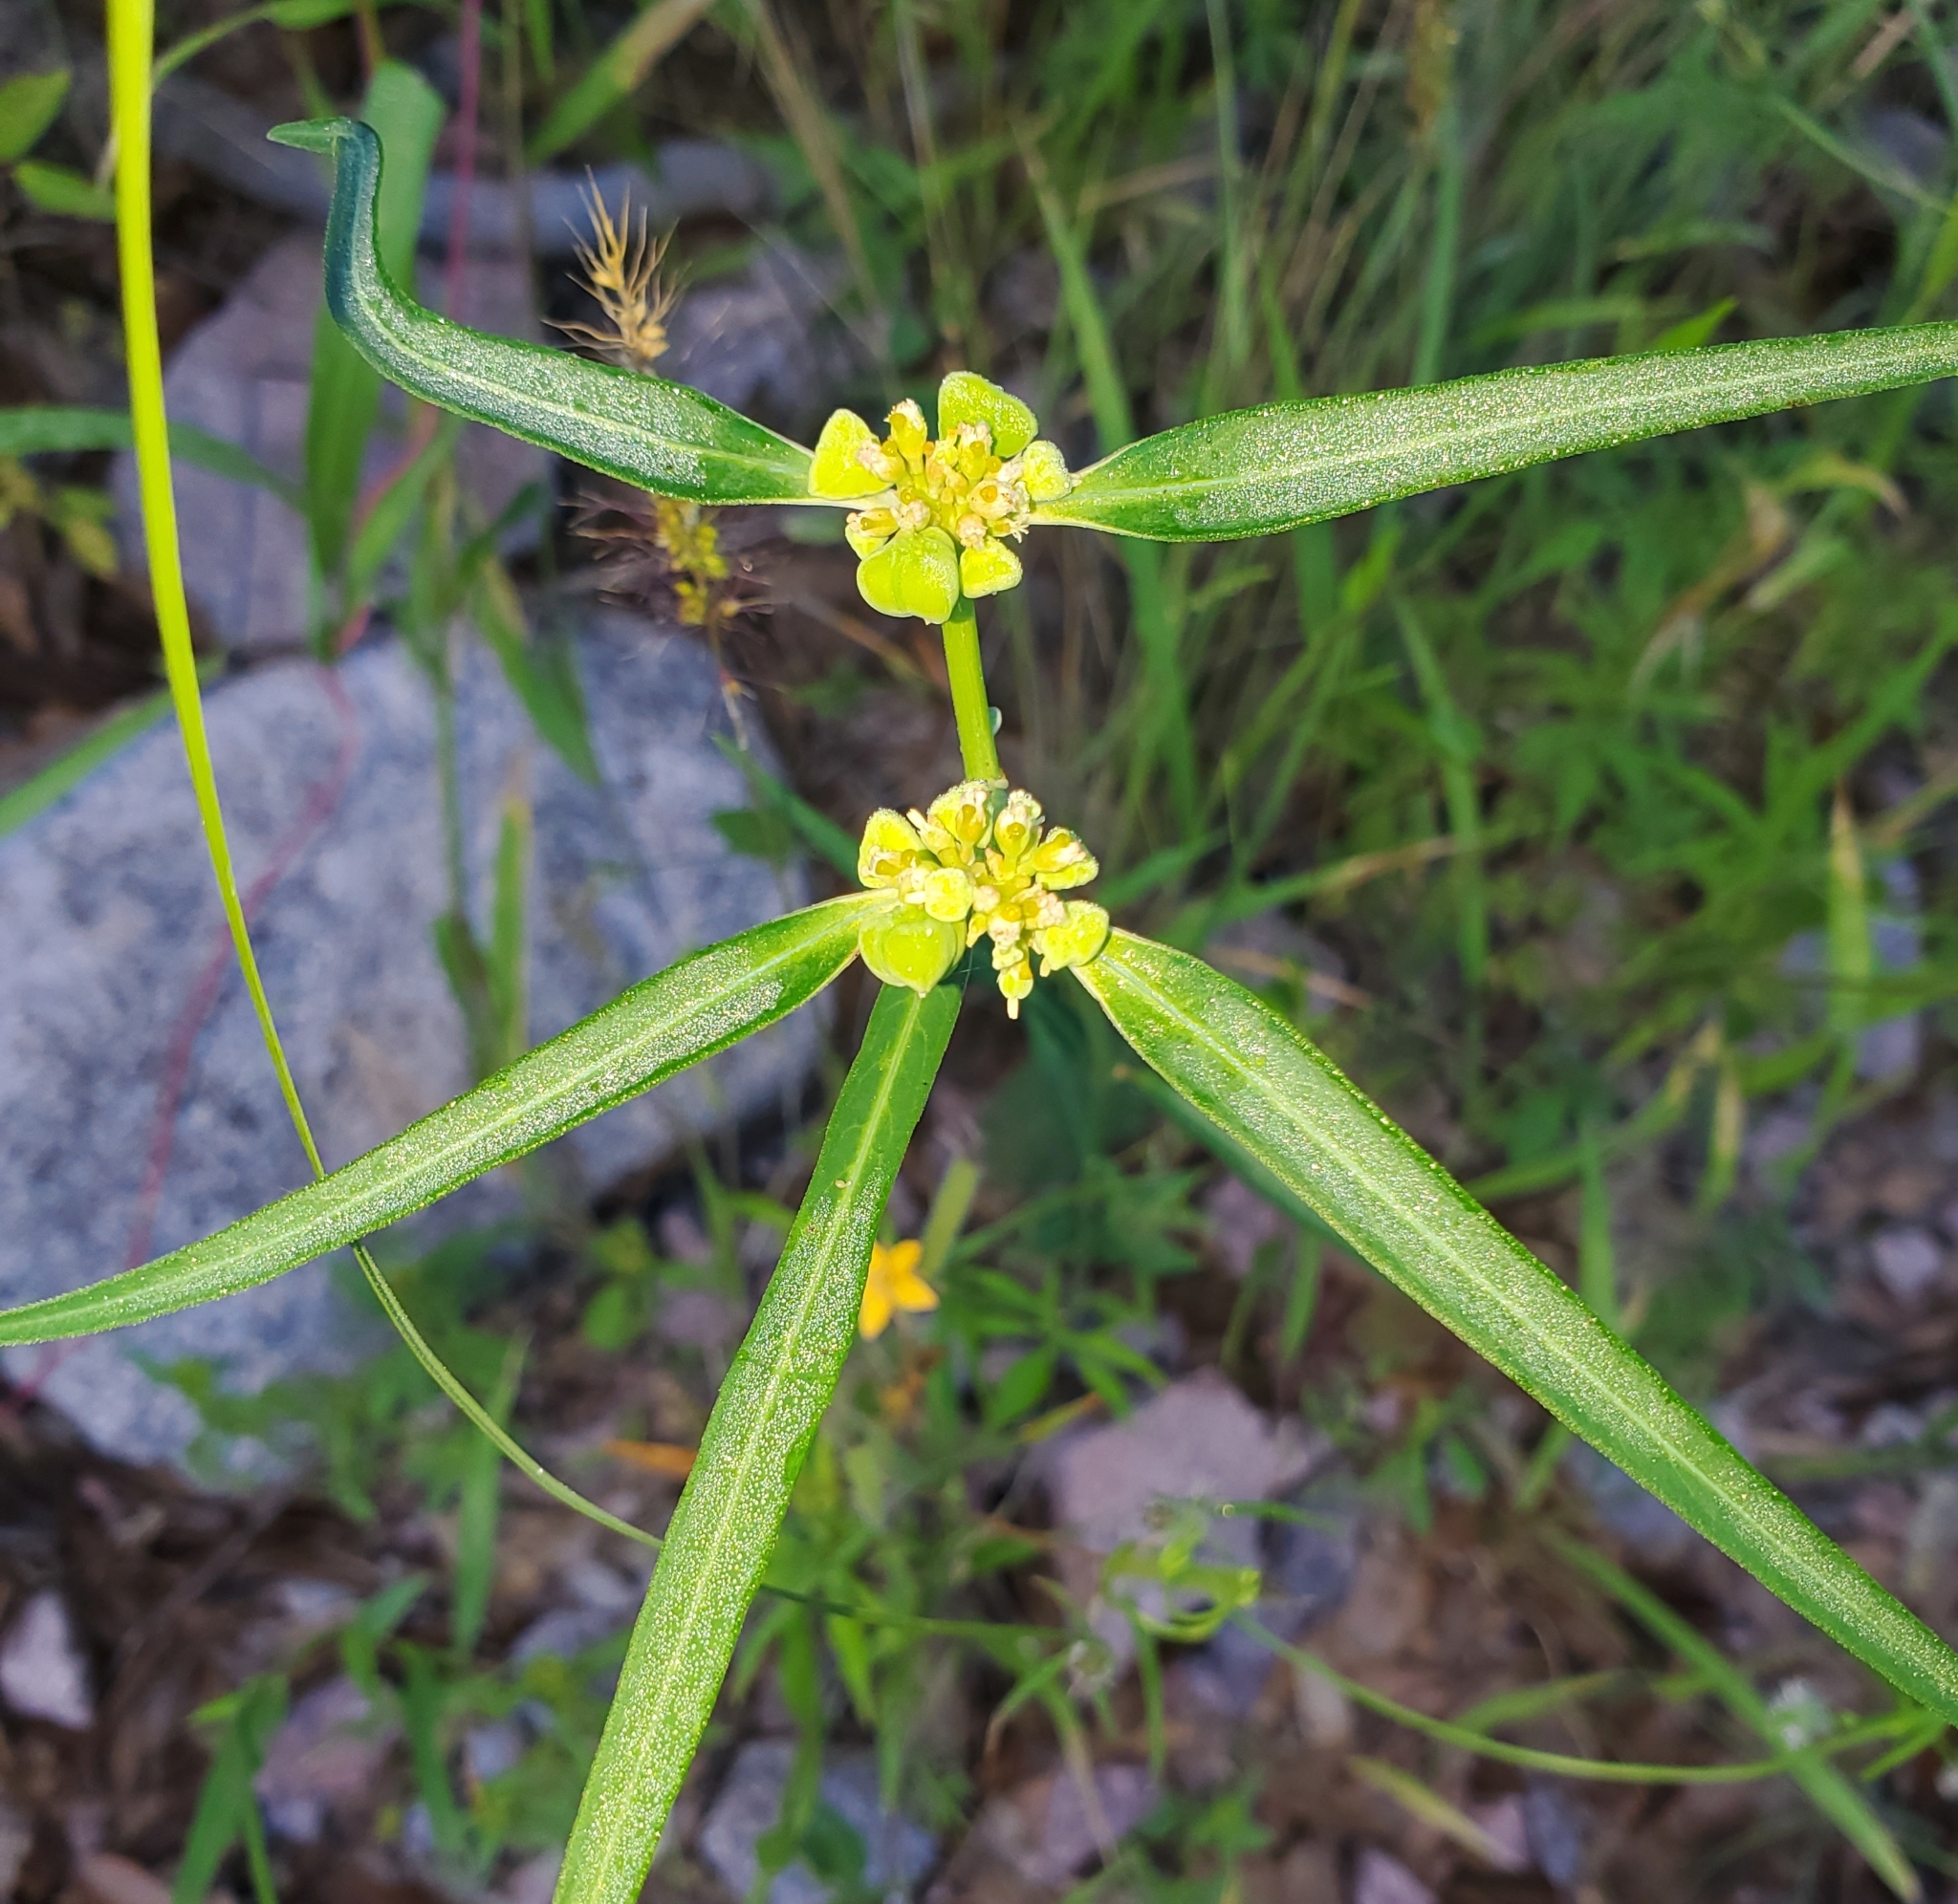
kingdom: Plantae
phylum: Tracheophyta
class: Magnoliopsida
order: Malpighiales
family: Euphorbiaceae
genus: Euphorbia
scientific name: Euphorbia heterophylla
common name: Mexican fireplant
